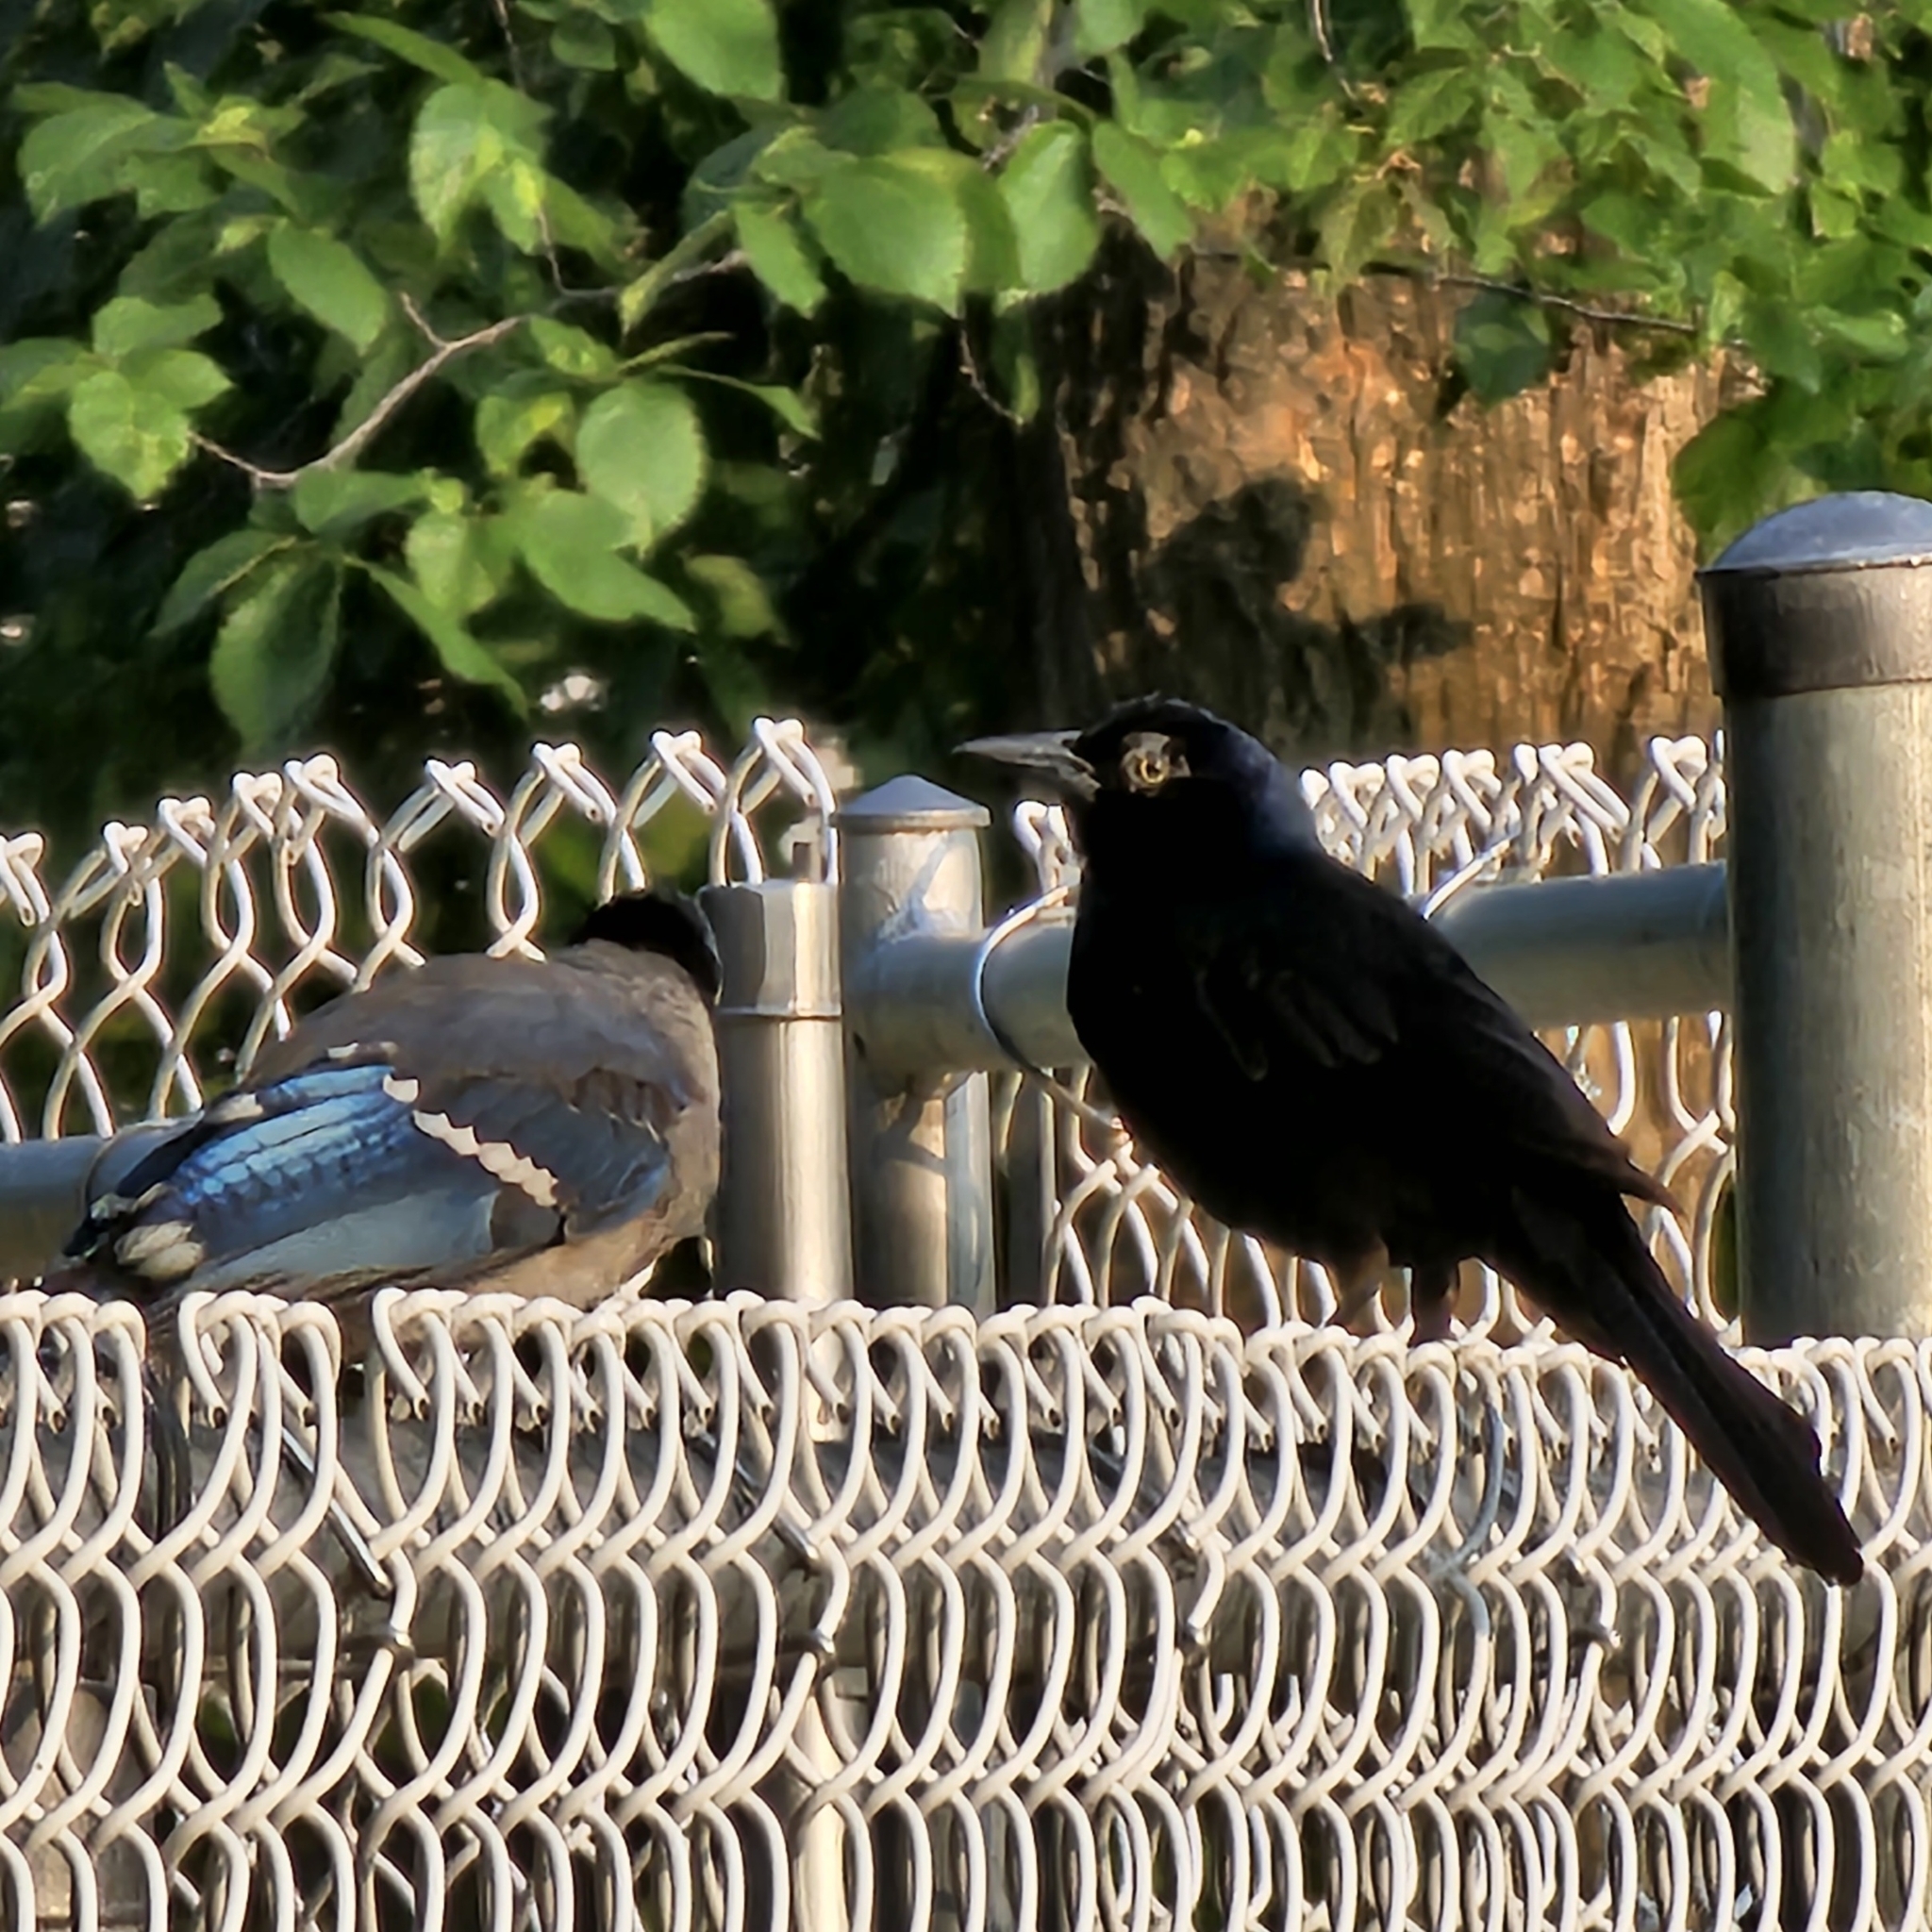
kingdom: Animalia
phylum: Chordata
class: Aves
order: Passeriformes
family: Icteridae
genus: Quiscalus
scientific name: Quiscalus quiscula
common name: Common grackle
